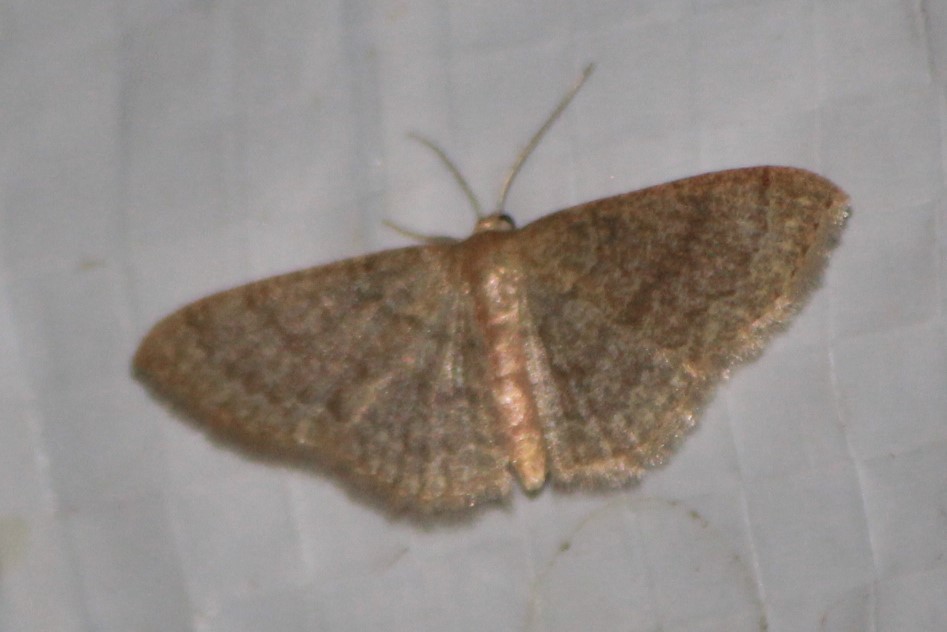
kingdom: Animalia
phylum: Arthropoda
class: Insecta
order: Lepidoptera
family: Geometridae
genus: Pleuroprucha
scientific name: Pleuroprucha insulsaria
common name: Common tan wave
